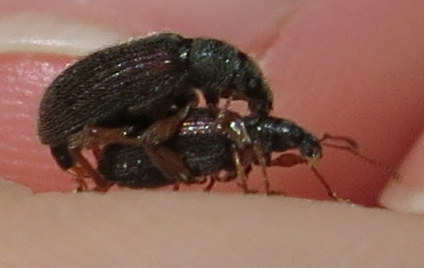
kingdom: Animalia
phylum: Arthropoda
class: Insecta
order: Coleoptera
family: Curculionidae
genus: Phyllobius
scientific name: Phyllobius oblongus
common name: Brown leaf weevil
